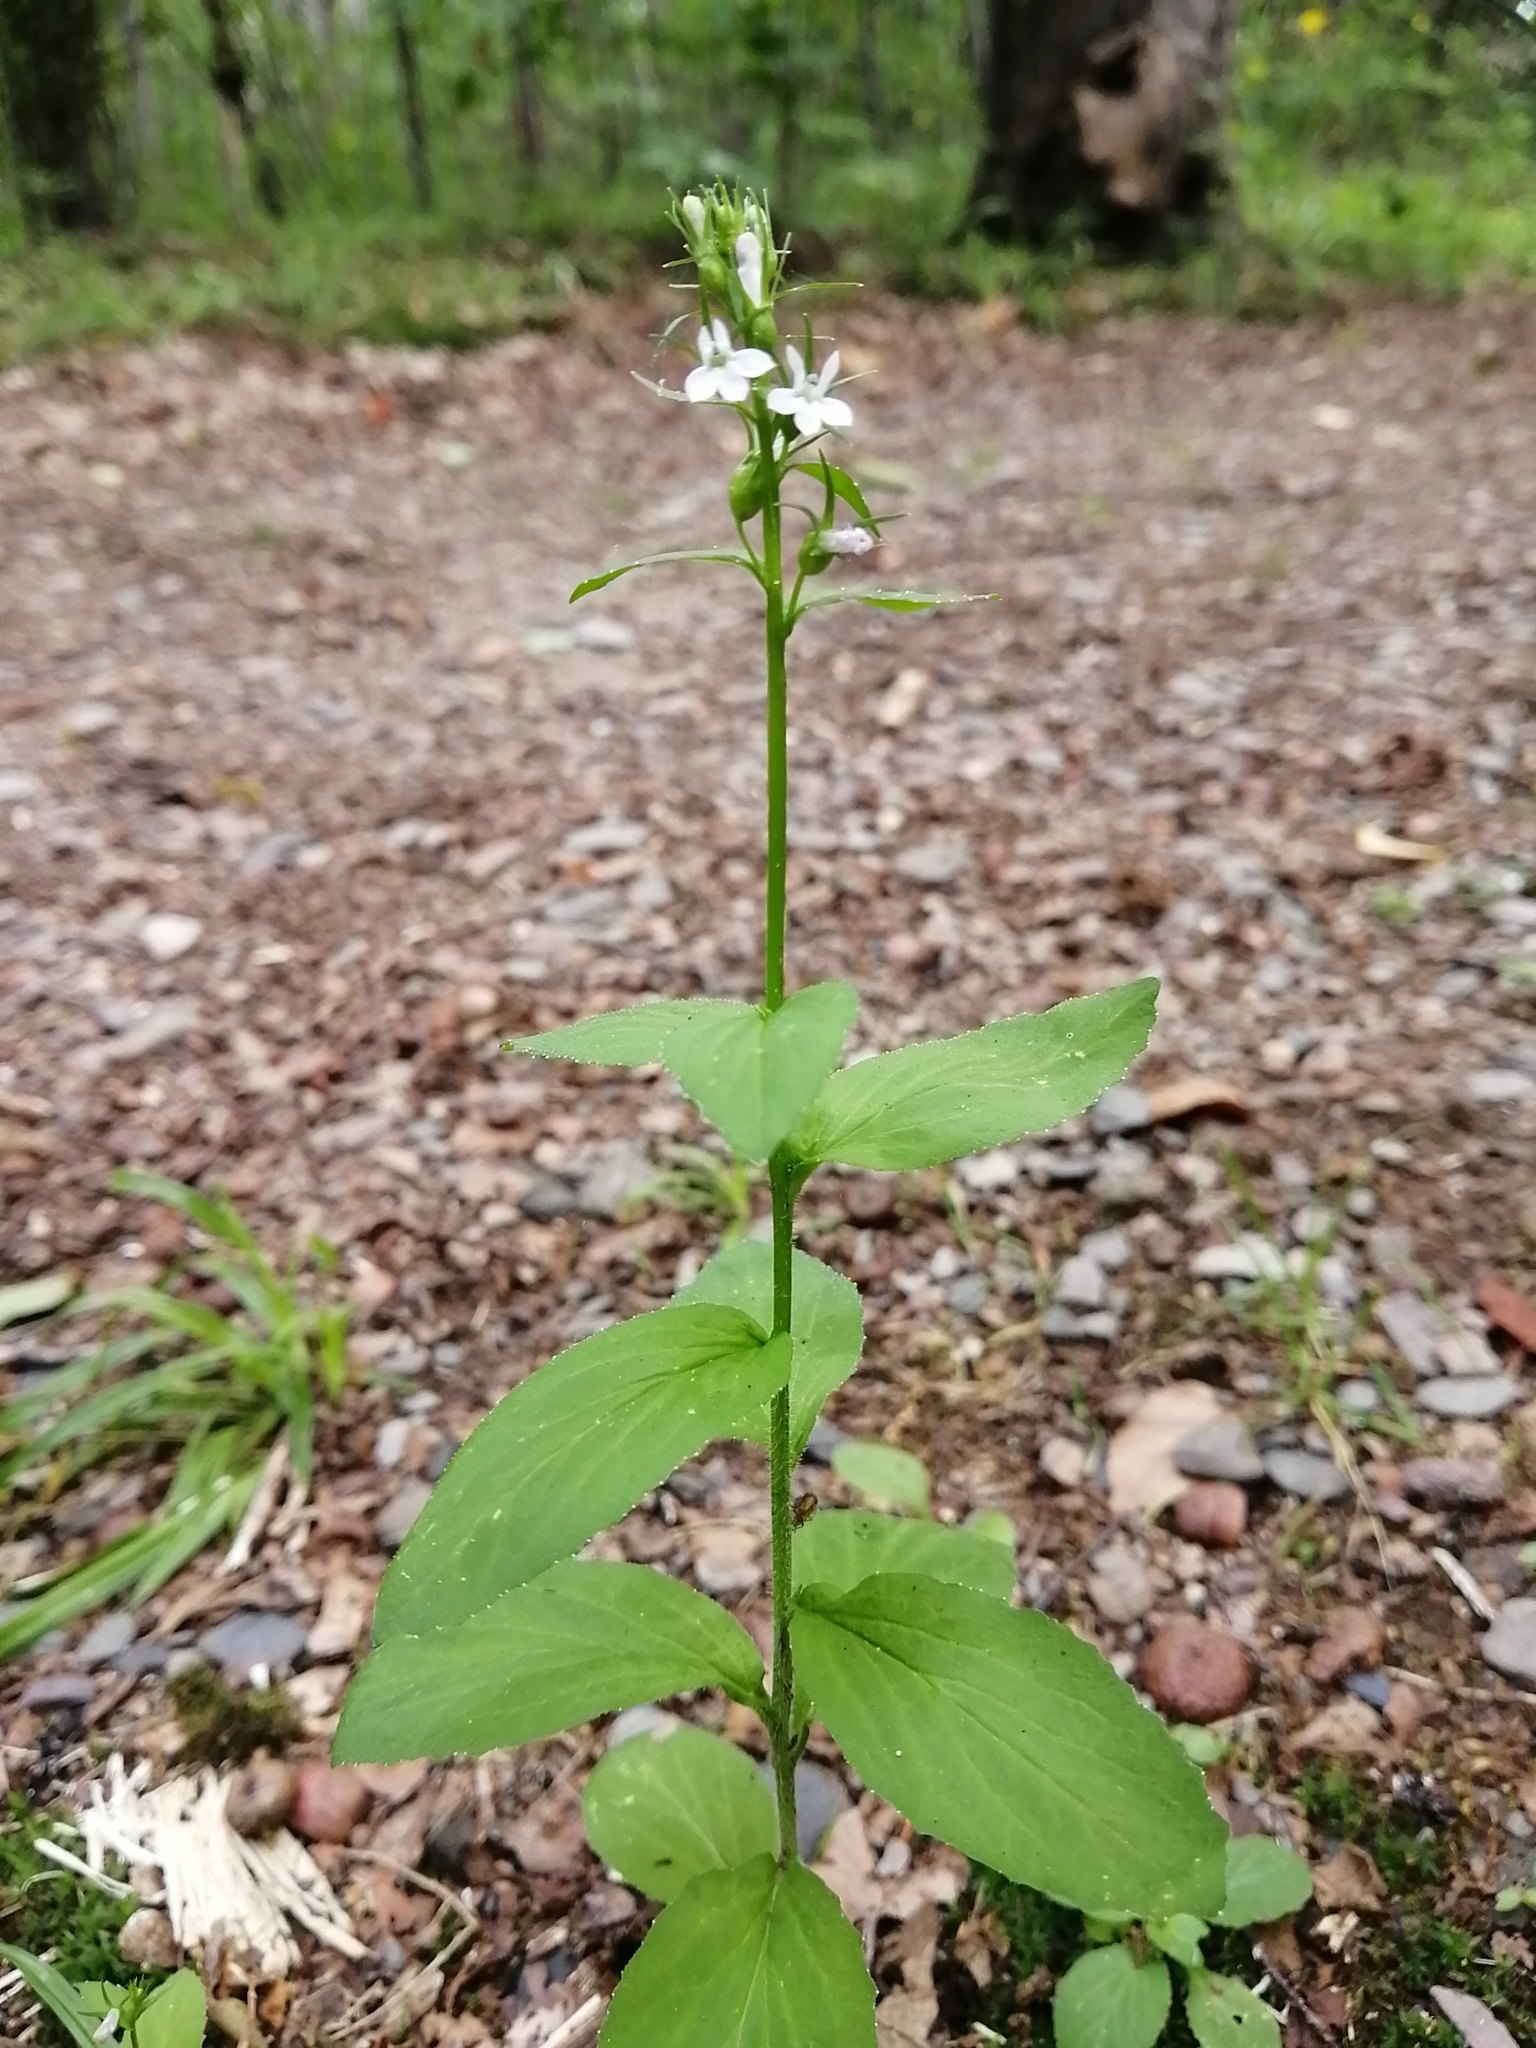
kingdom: Plantae
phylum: Tracheophyta
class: Magnoliopsida
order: Asterales
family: Campanulaceae
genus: Lobelia
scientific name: Lobelia inflata
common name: Indian tobacco
